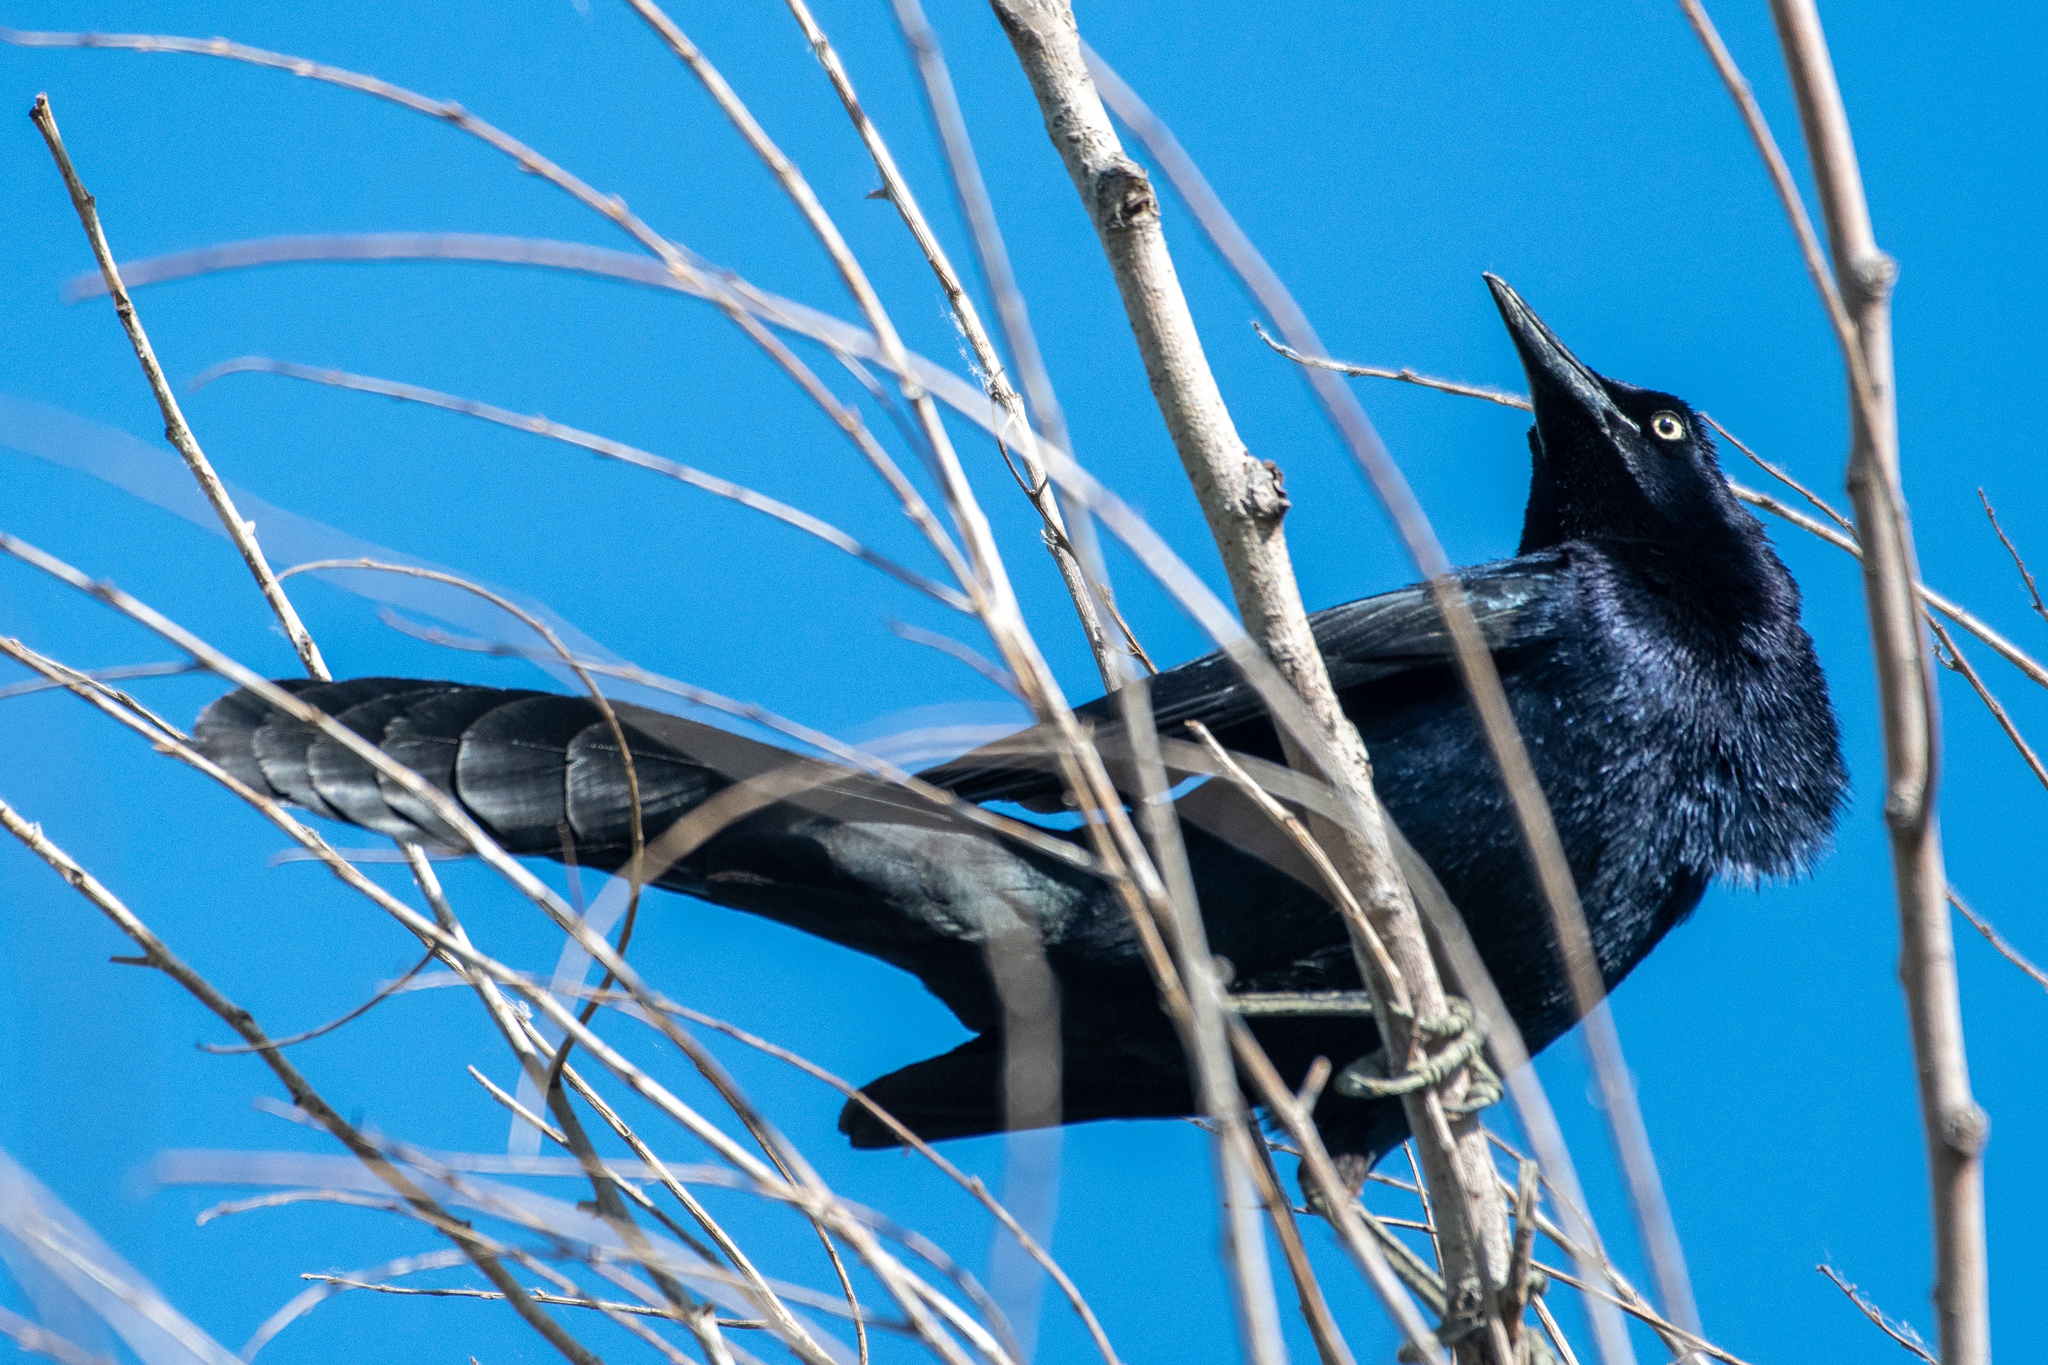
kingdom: Animalia
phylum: Chordata
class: Aves
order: Passeriformes
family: Icteridae
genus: Quiscalus
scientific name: Quiscalus mexicanus
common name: Great-tailed grackle
